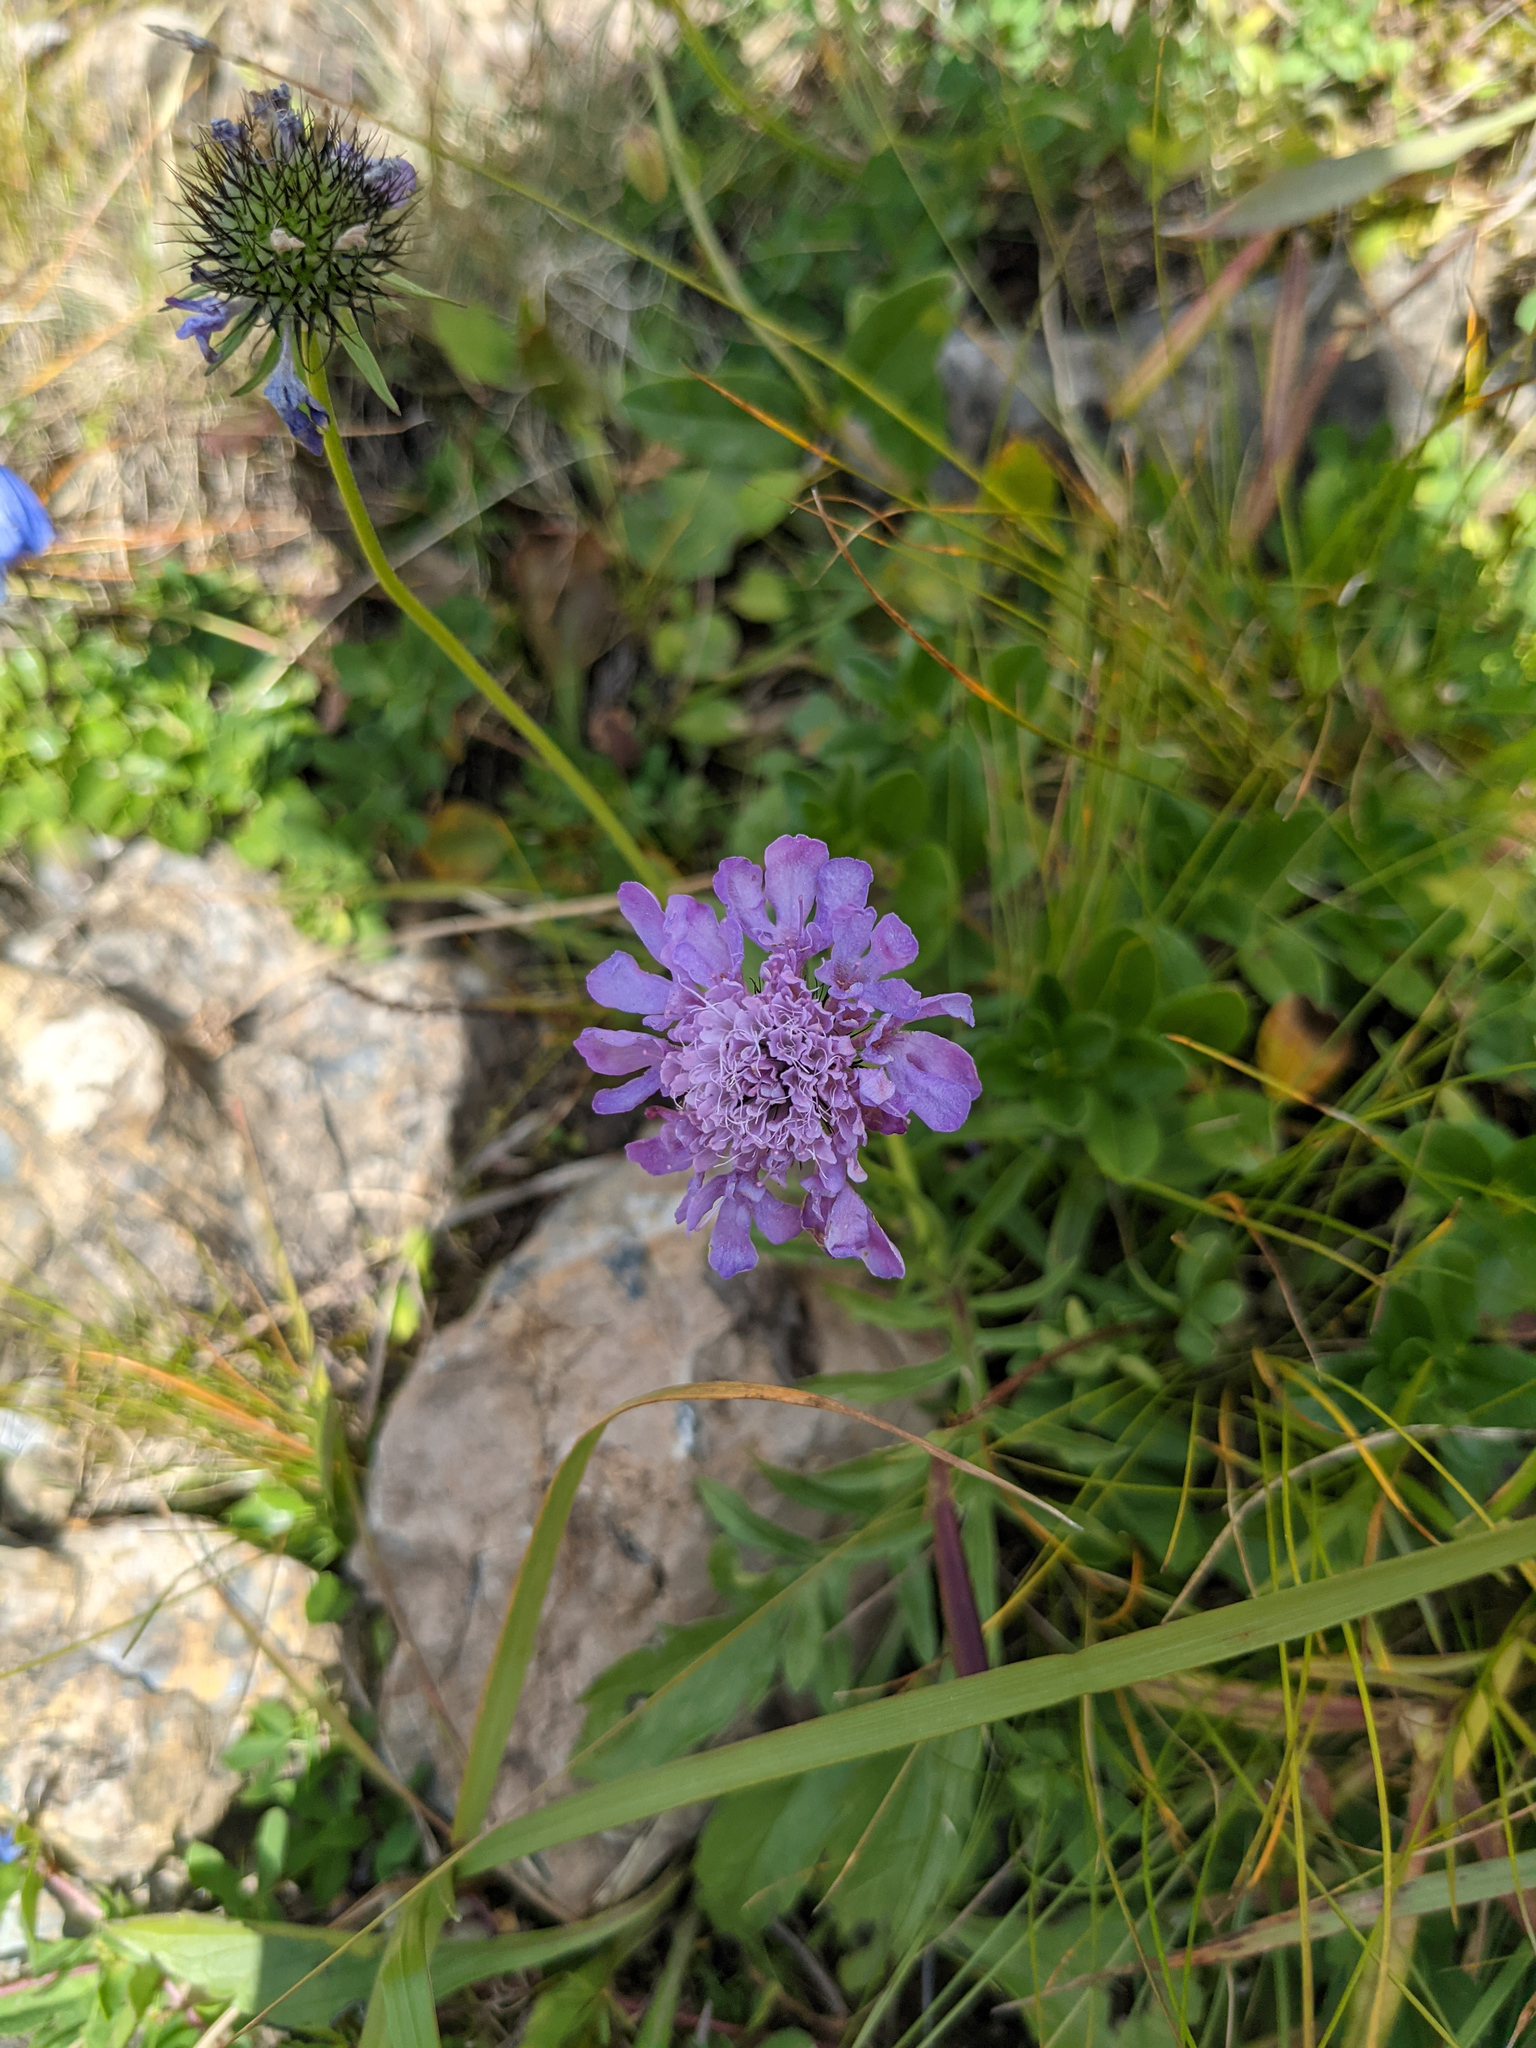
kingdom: Plantae
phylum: Tracheophyta
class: Magnoliopsida
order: Dipsacales
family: Caprifoliaceae
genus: Scabiosa
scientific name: Scabiosa lucida
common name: Shining scabious
